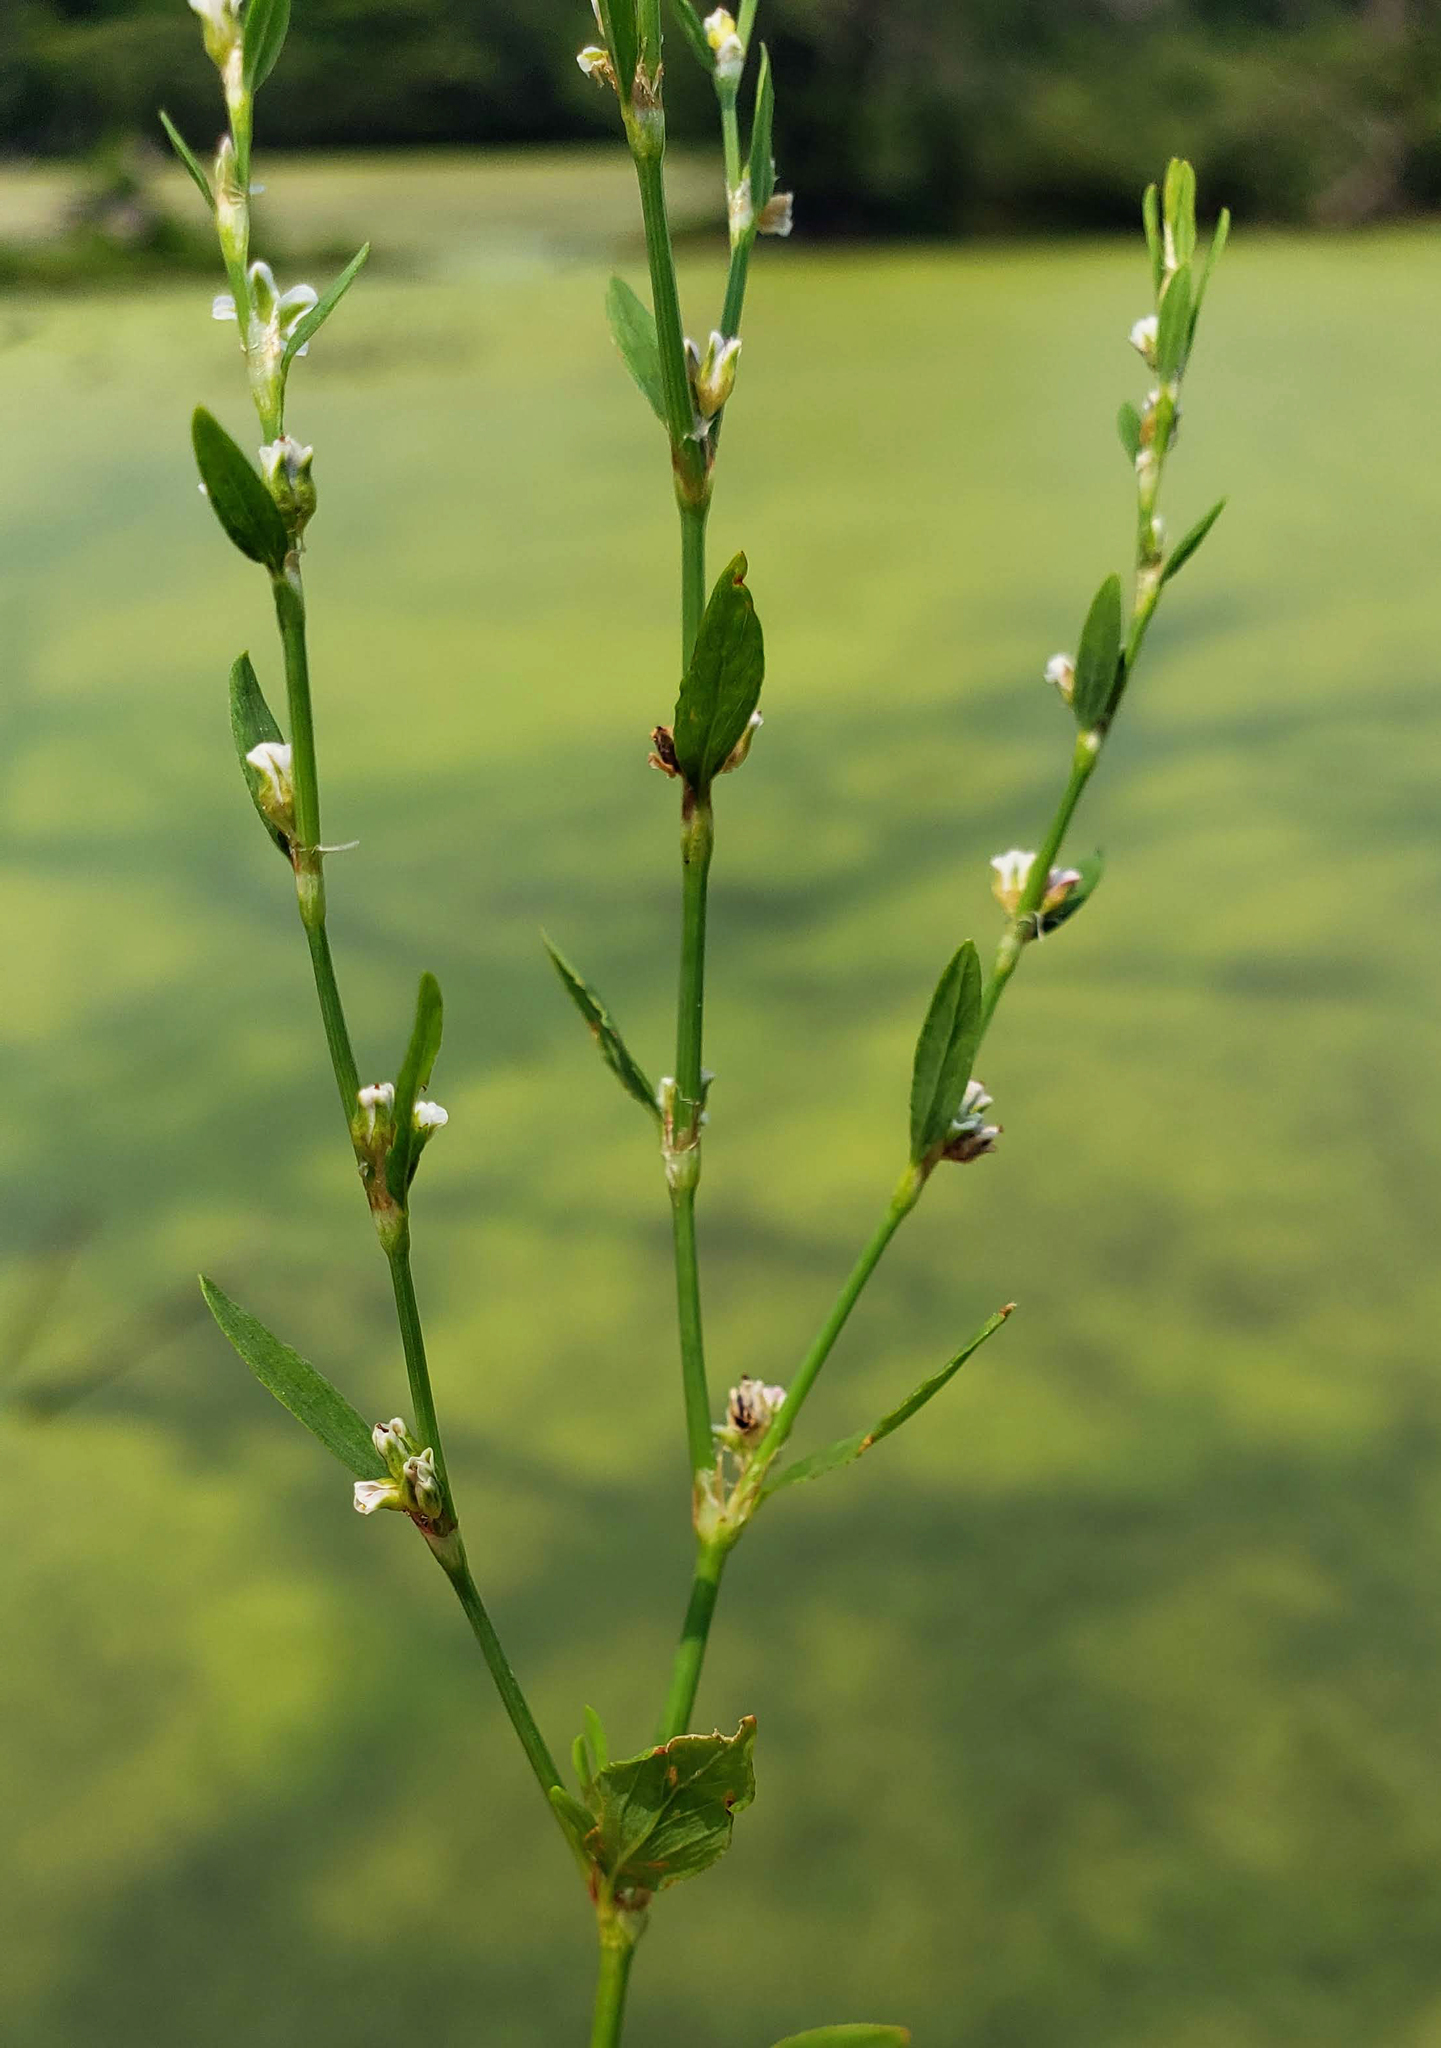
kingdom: Plantae
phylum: Tracheophyta
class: Magnoliopsida
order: Caryophyllales
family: Polygonaceae
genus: Polygonum
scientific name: Polygonum aviculare
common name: Prostrate knotweed
